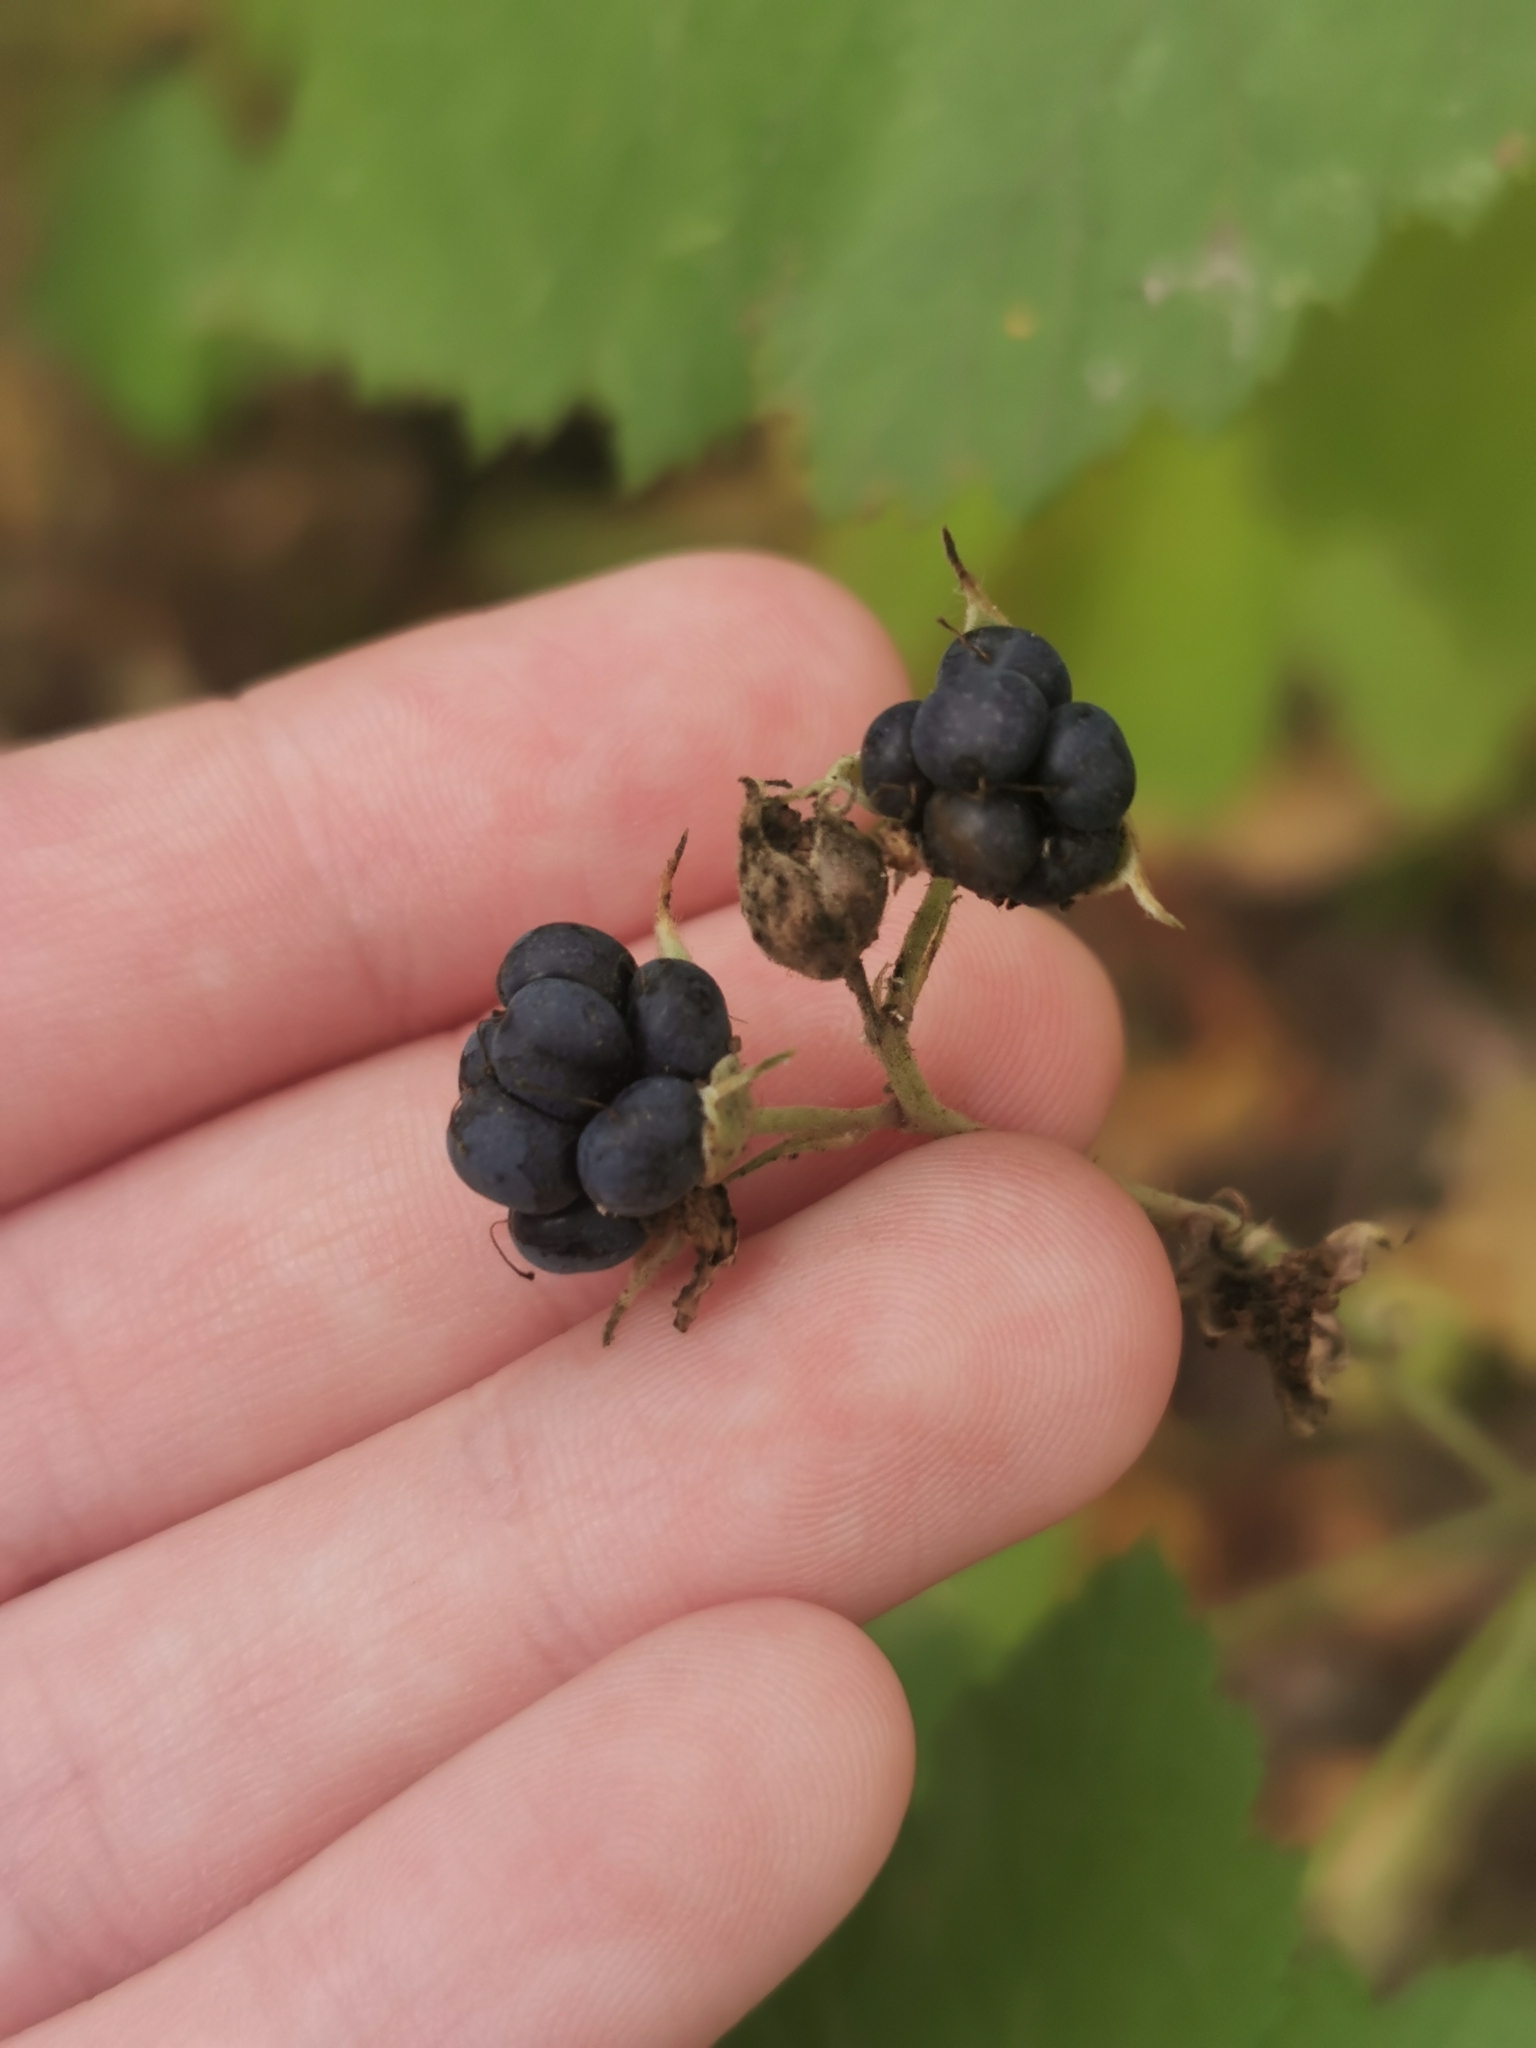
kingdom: Plantae
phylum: Tracheophyta
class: Magnoliopsida
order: Rosales
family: Rosaceae
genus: Rubus
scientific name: Rubus caesius
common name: Dewberry
